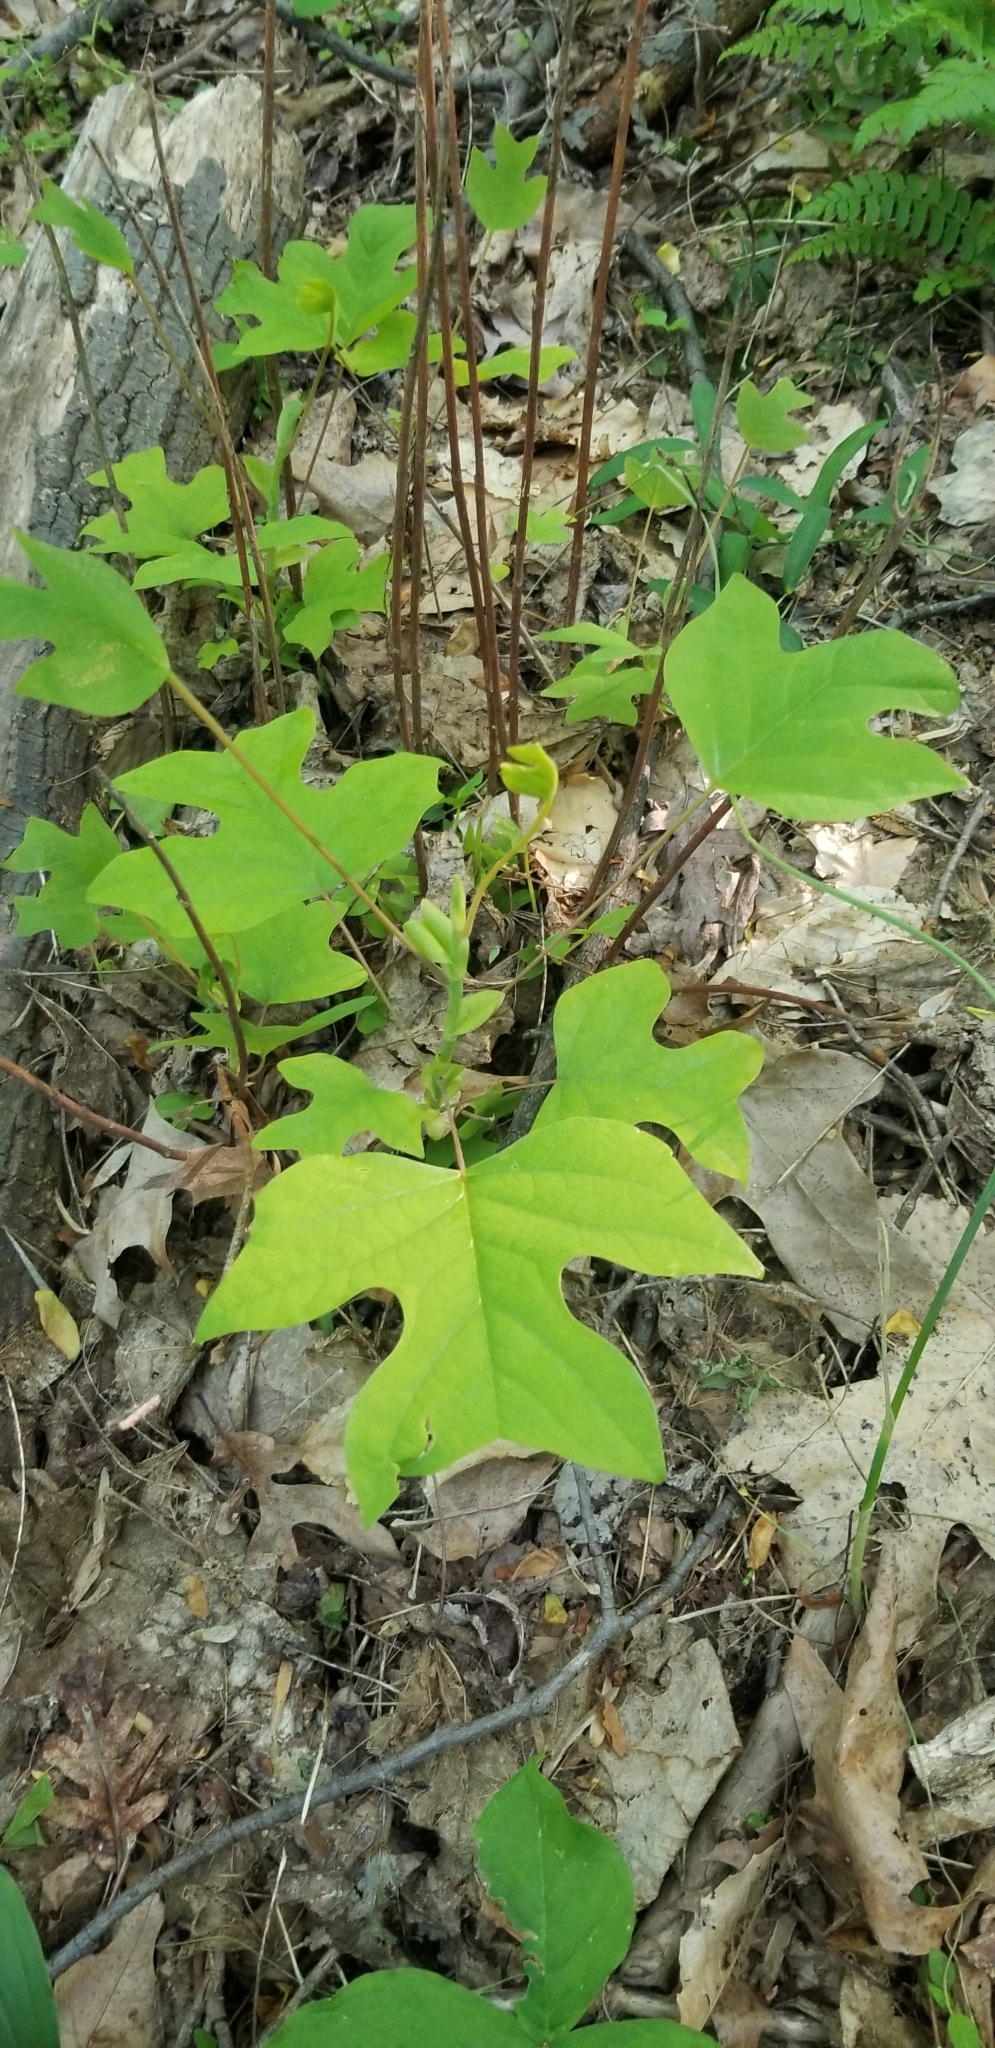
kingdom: Plantae
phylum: Tracheophyta
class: Magnoliopsida
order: Magnoliales
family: Magnoliaceae
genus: Liriodendron
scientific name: Liriodendron tulipifera
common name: Tulip tree
